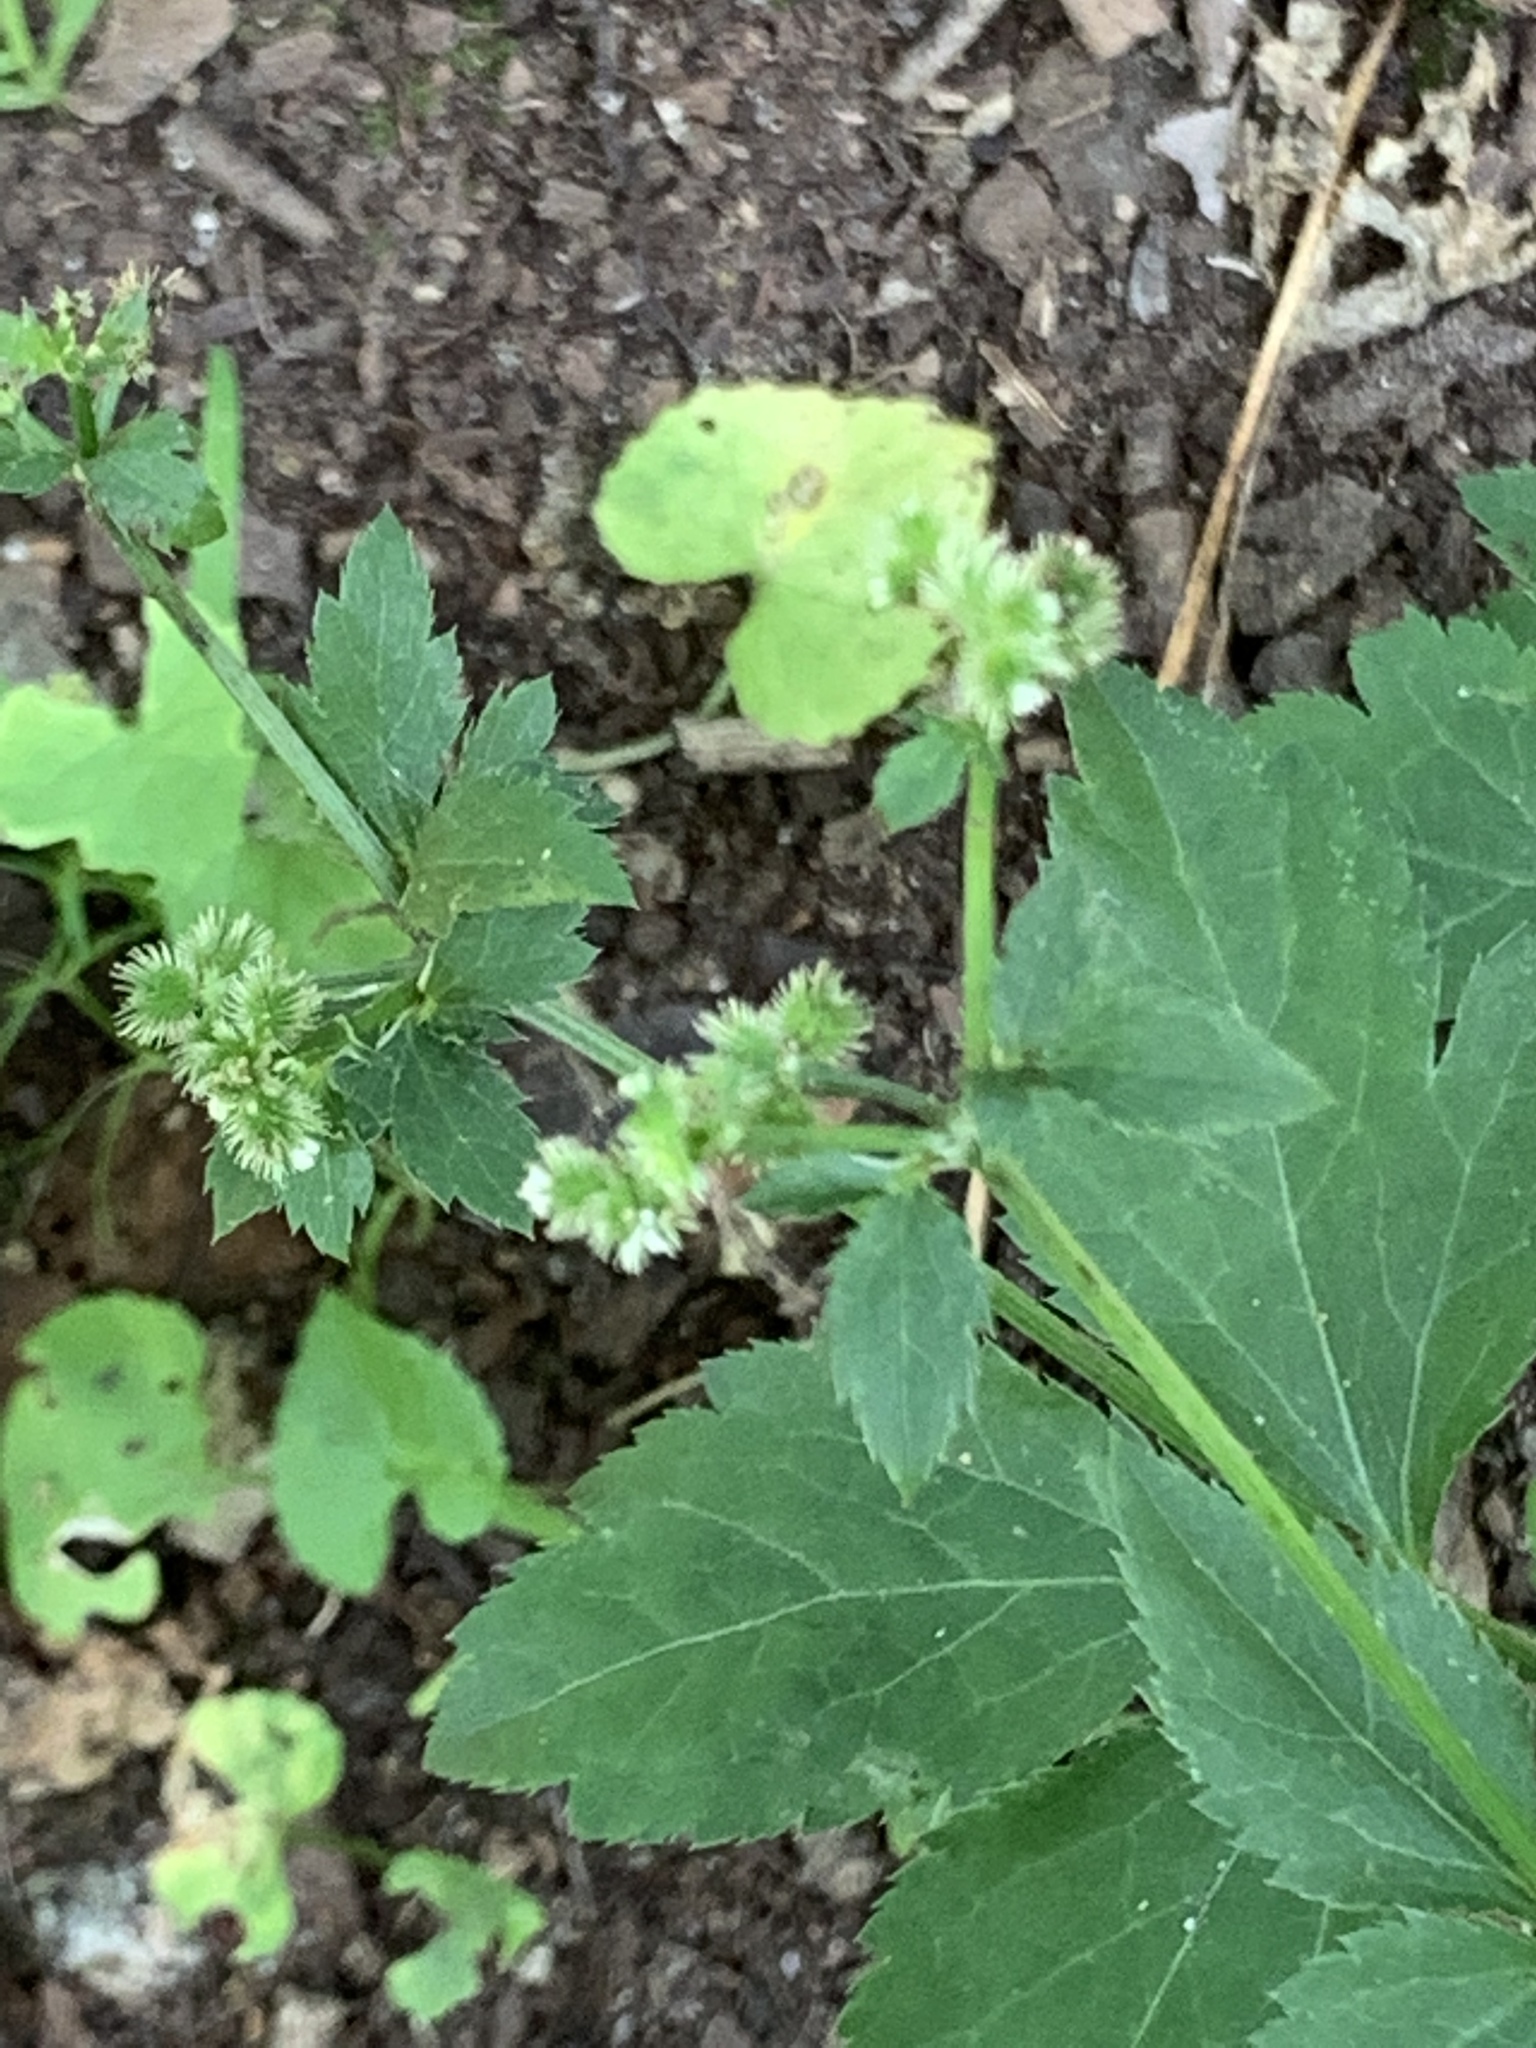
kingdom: Plantae
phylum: Tracheophyta
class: Magnoliopsida
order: Apiales
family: Apiaceae
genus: Sanicula
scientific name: Sanicula canadensis
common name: Canada sanicle
